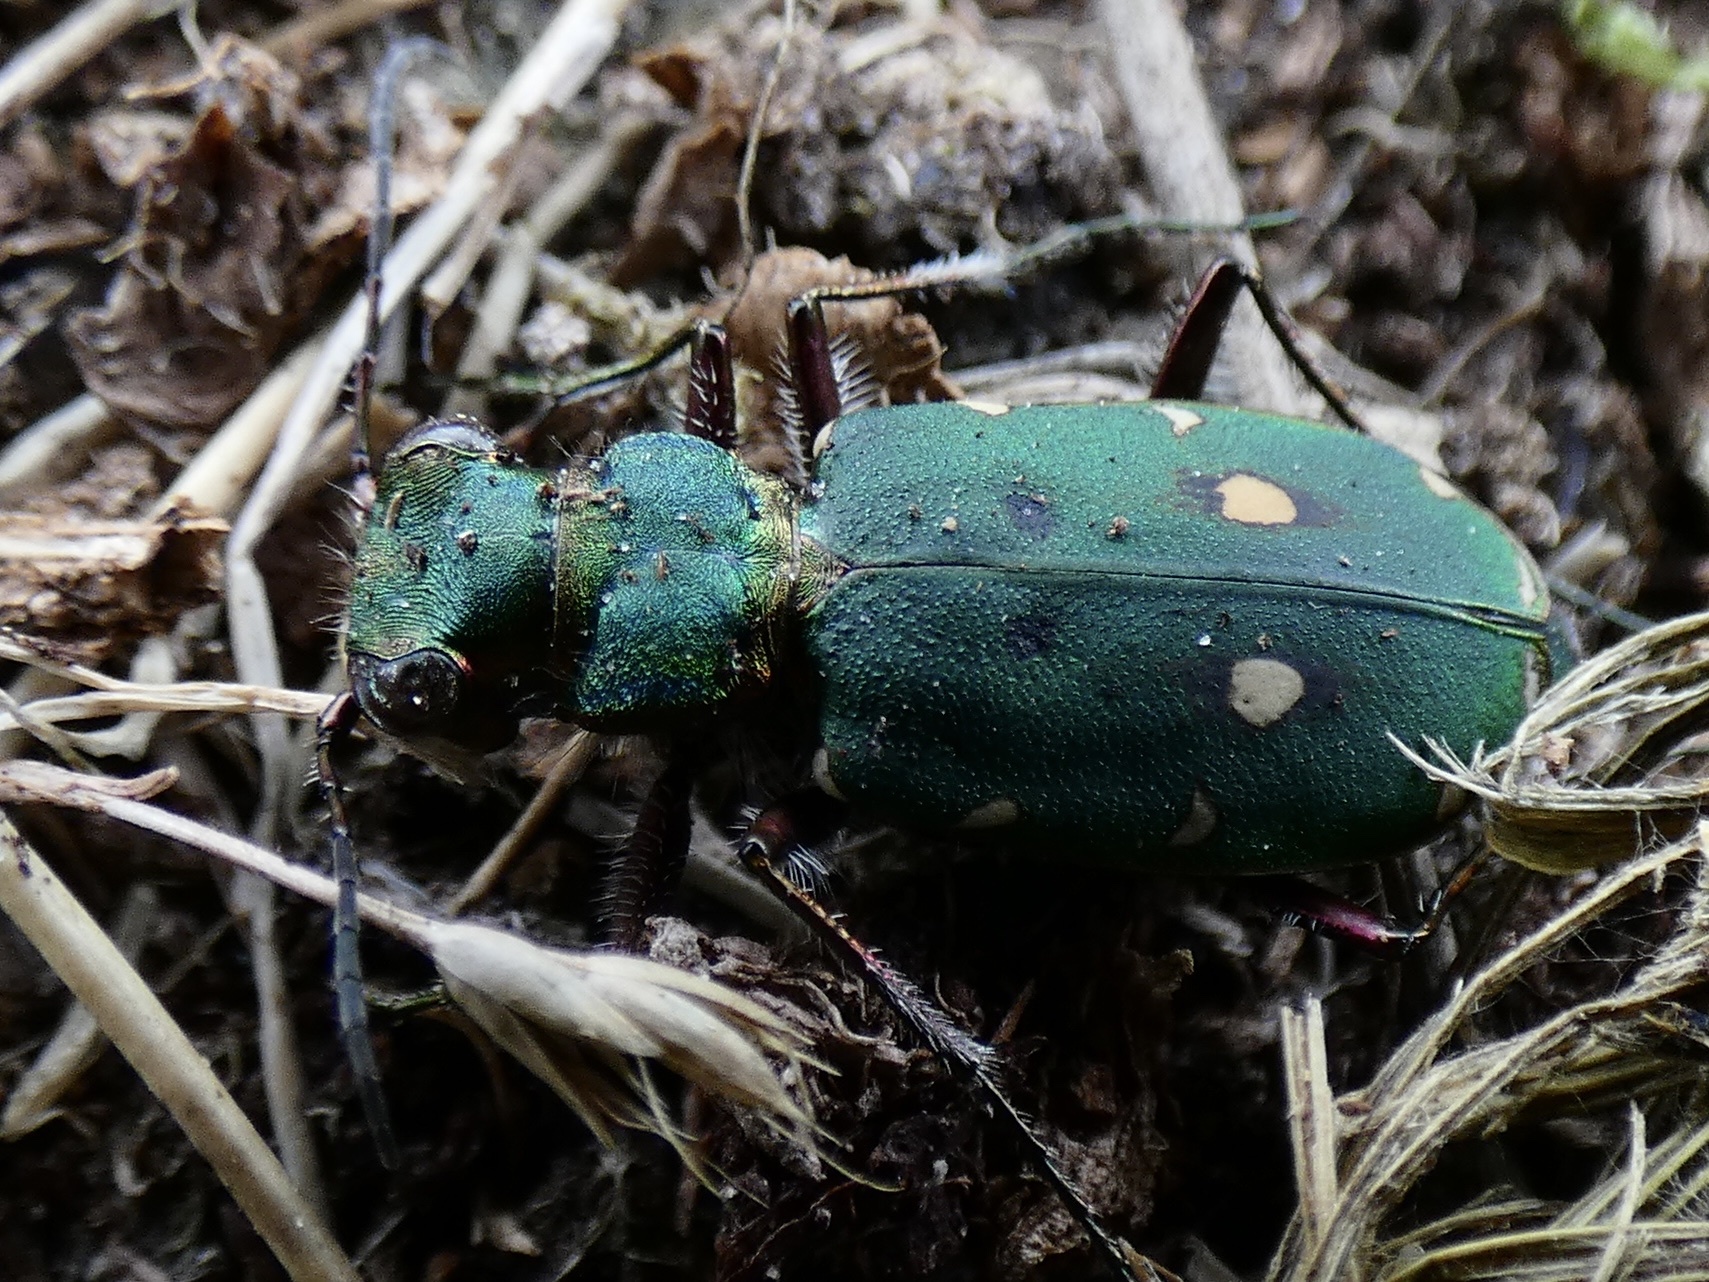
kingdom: Animalia
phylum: Arthropoda
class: Insecta
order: Coleoptera
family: Carabidae
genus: Cicindela
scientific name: Cicindela campestris
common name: Common tiger beetle
